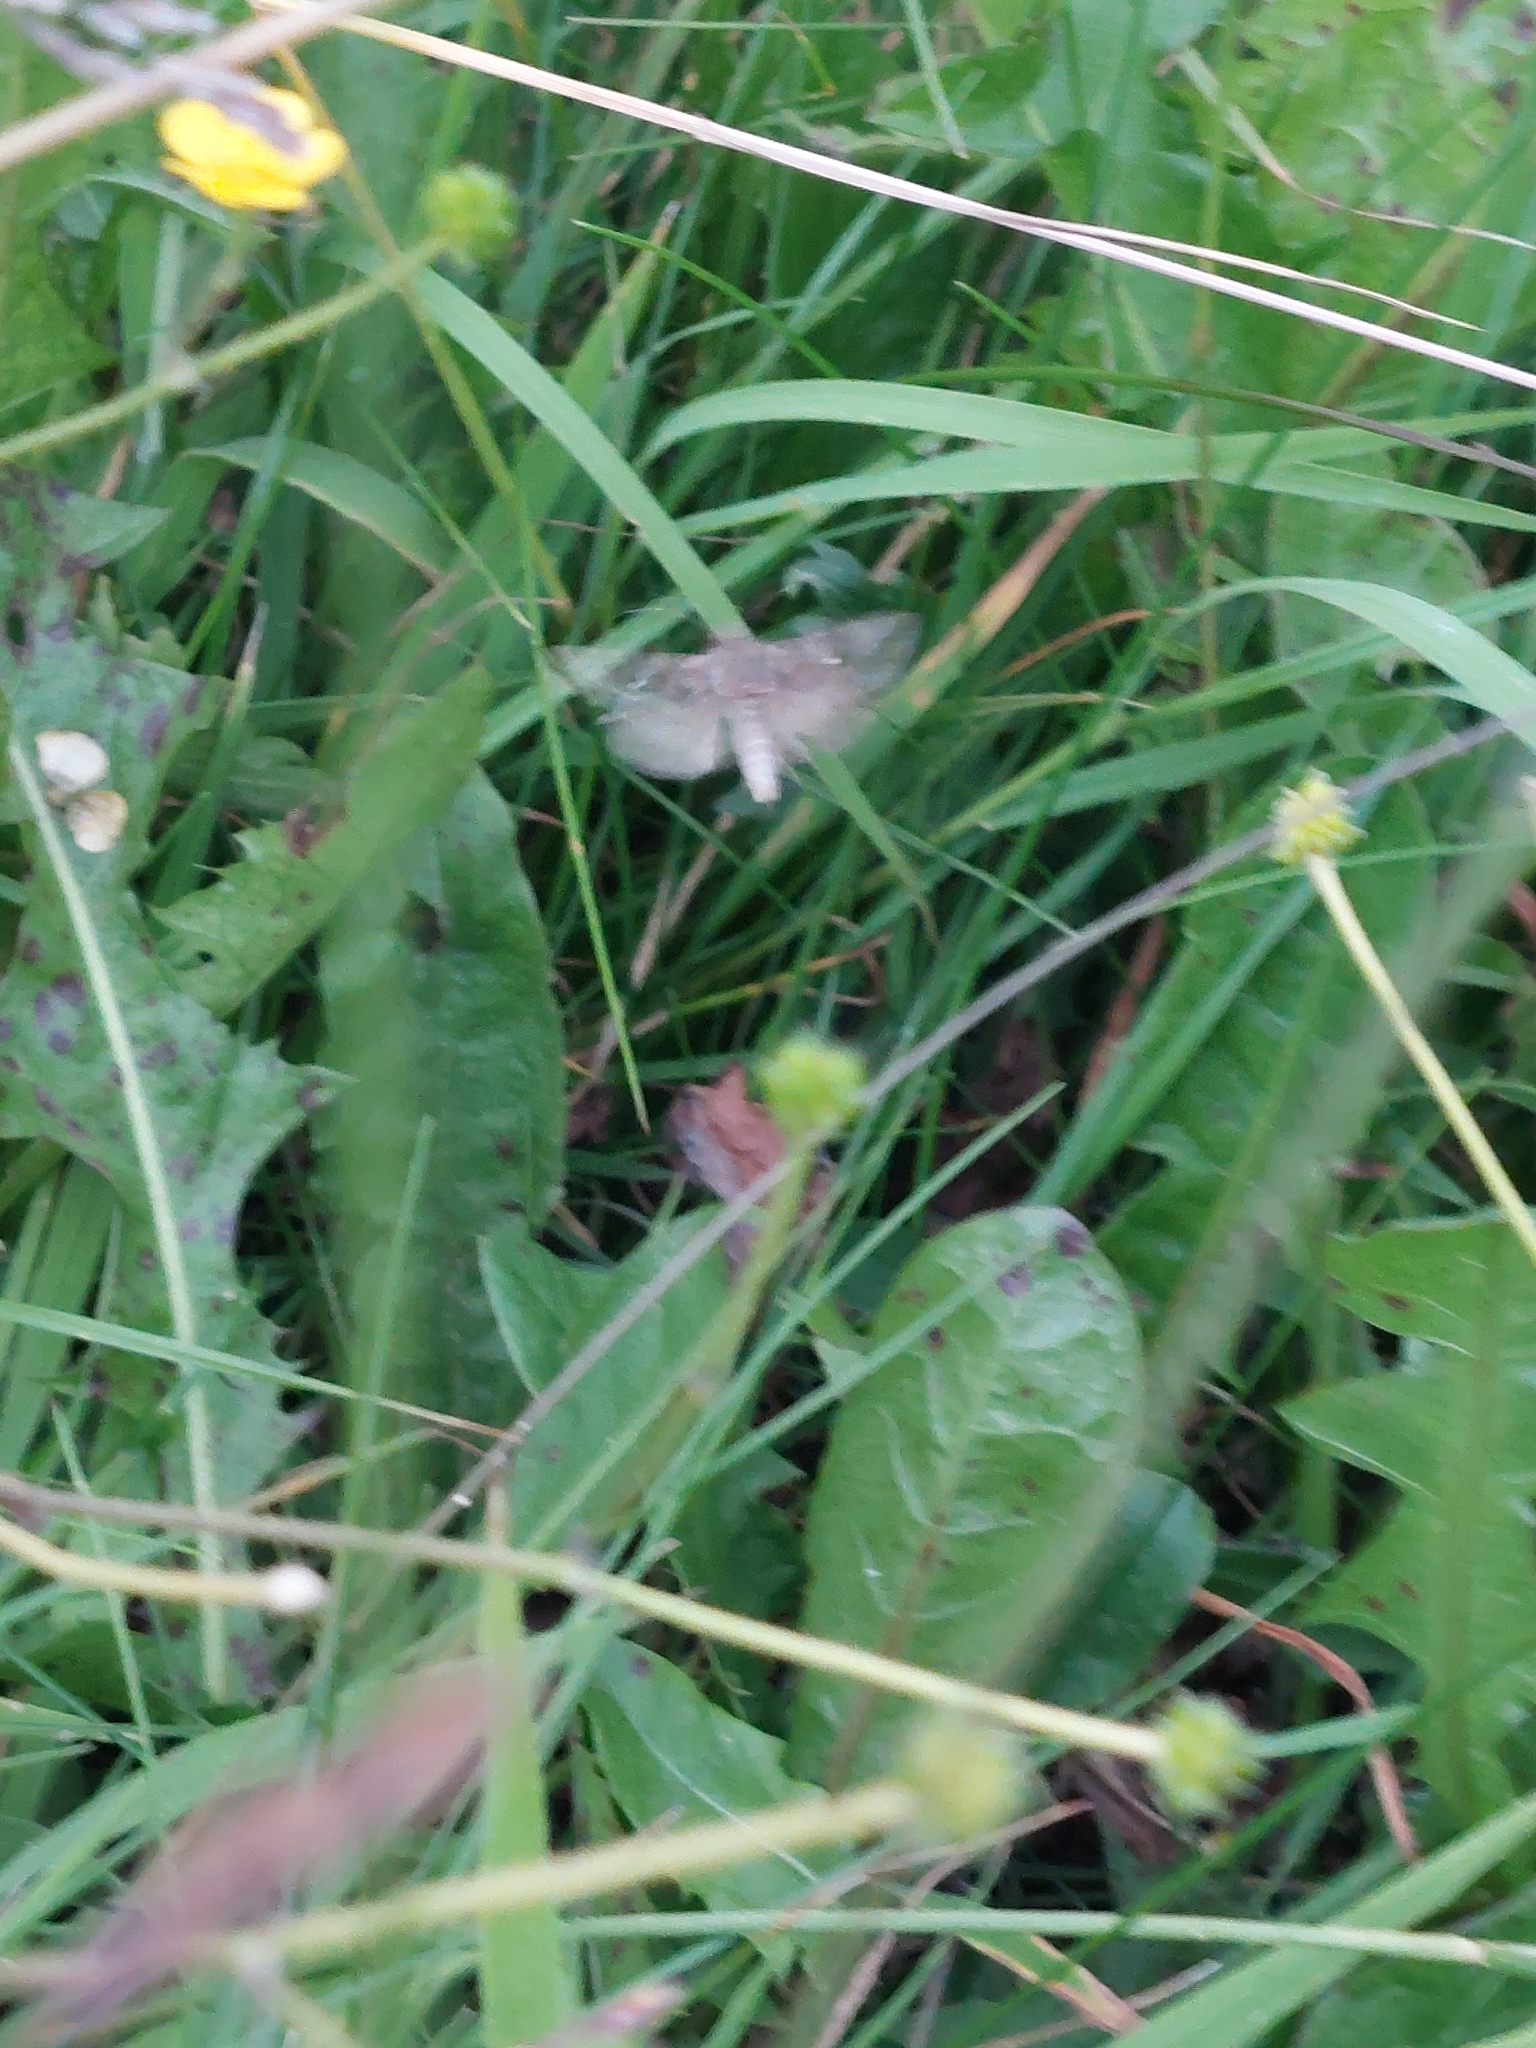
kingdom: Animalia
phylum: Arthropoda
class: Insecta
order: Lepidoptera
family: Noctuidae
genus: Autographa
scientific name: Autographa gamma
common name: Silver y
